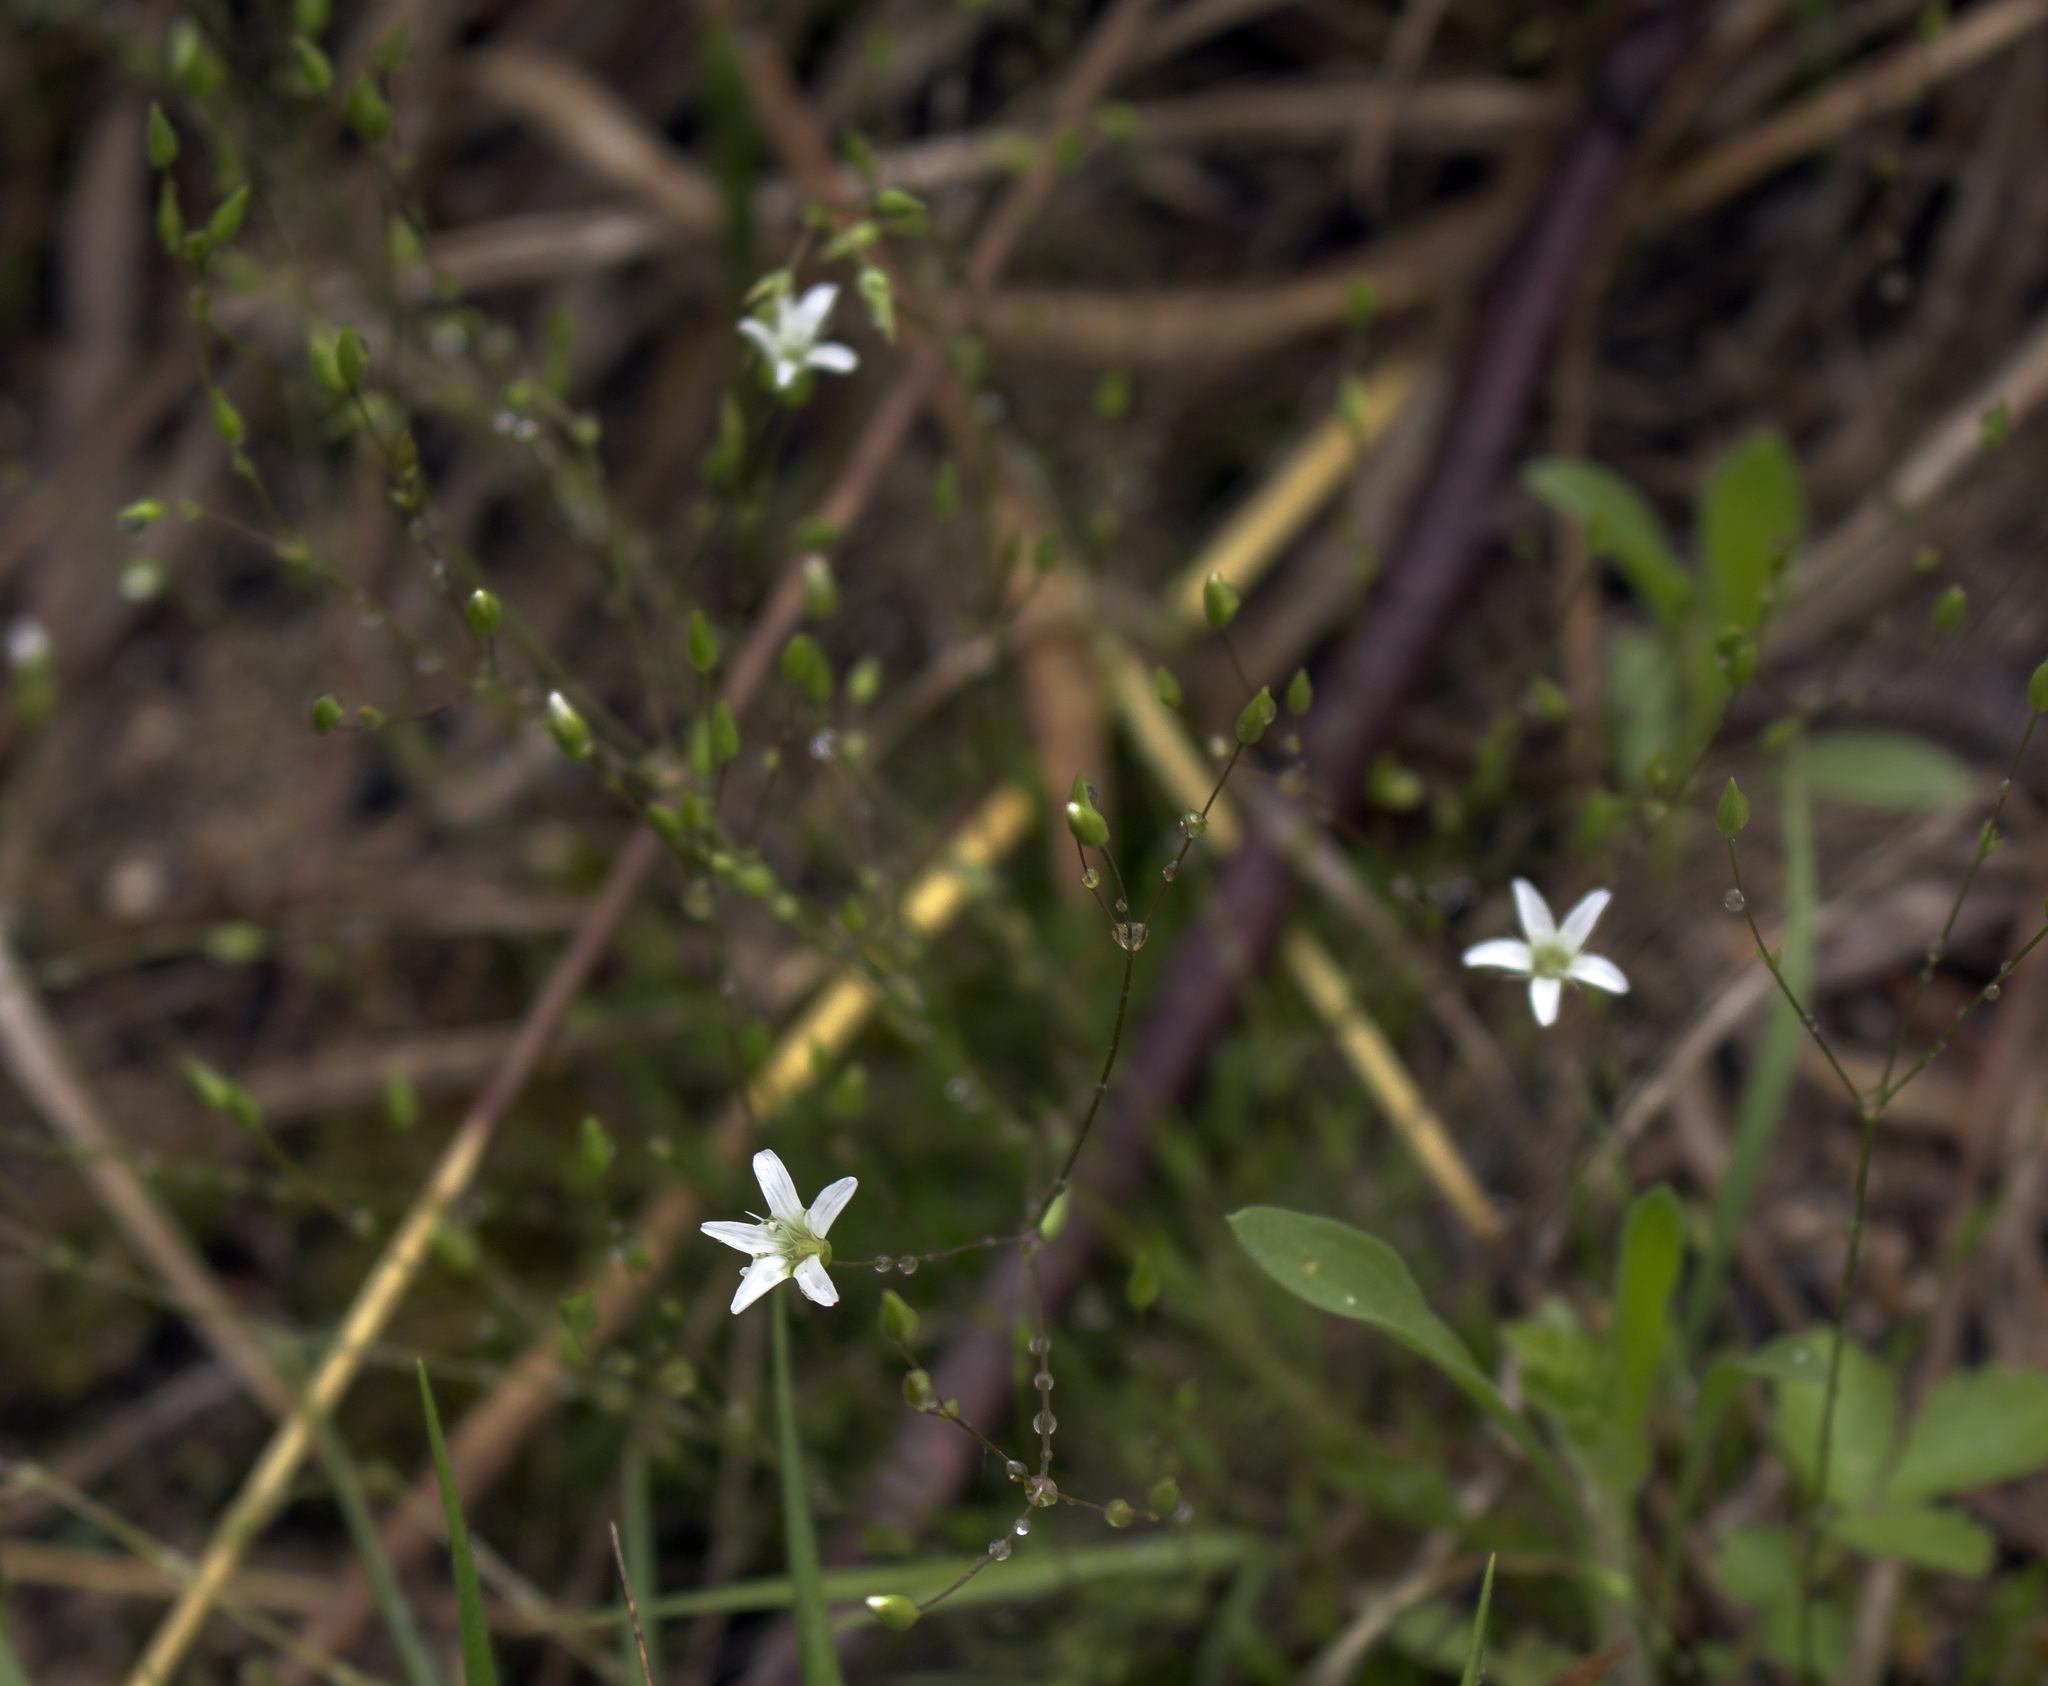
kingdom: Plantae
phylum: Tracheophyta
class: Magnoliopsida
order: Caryophyllales
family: Caryophyllaceae
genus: Sabulina
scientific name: Sabulina michauxii
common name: Michaux's stitchwort
